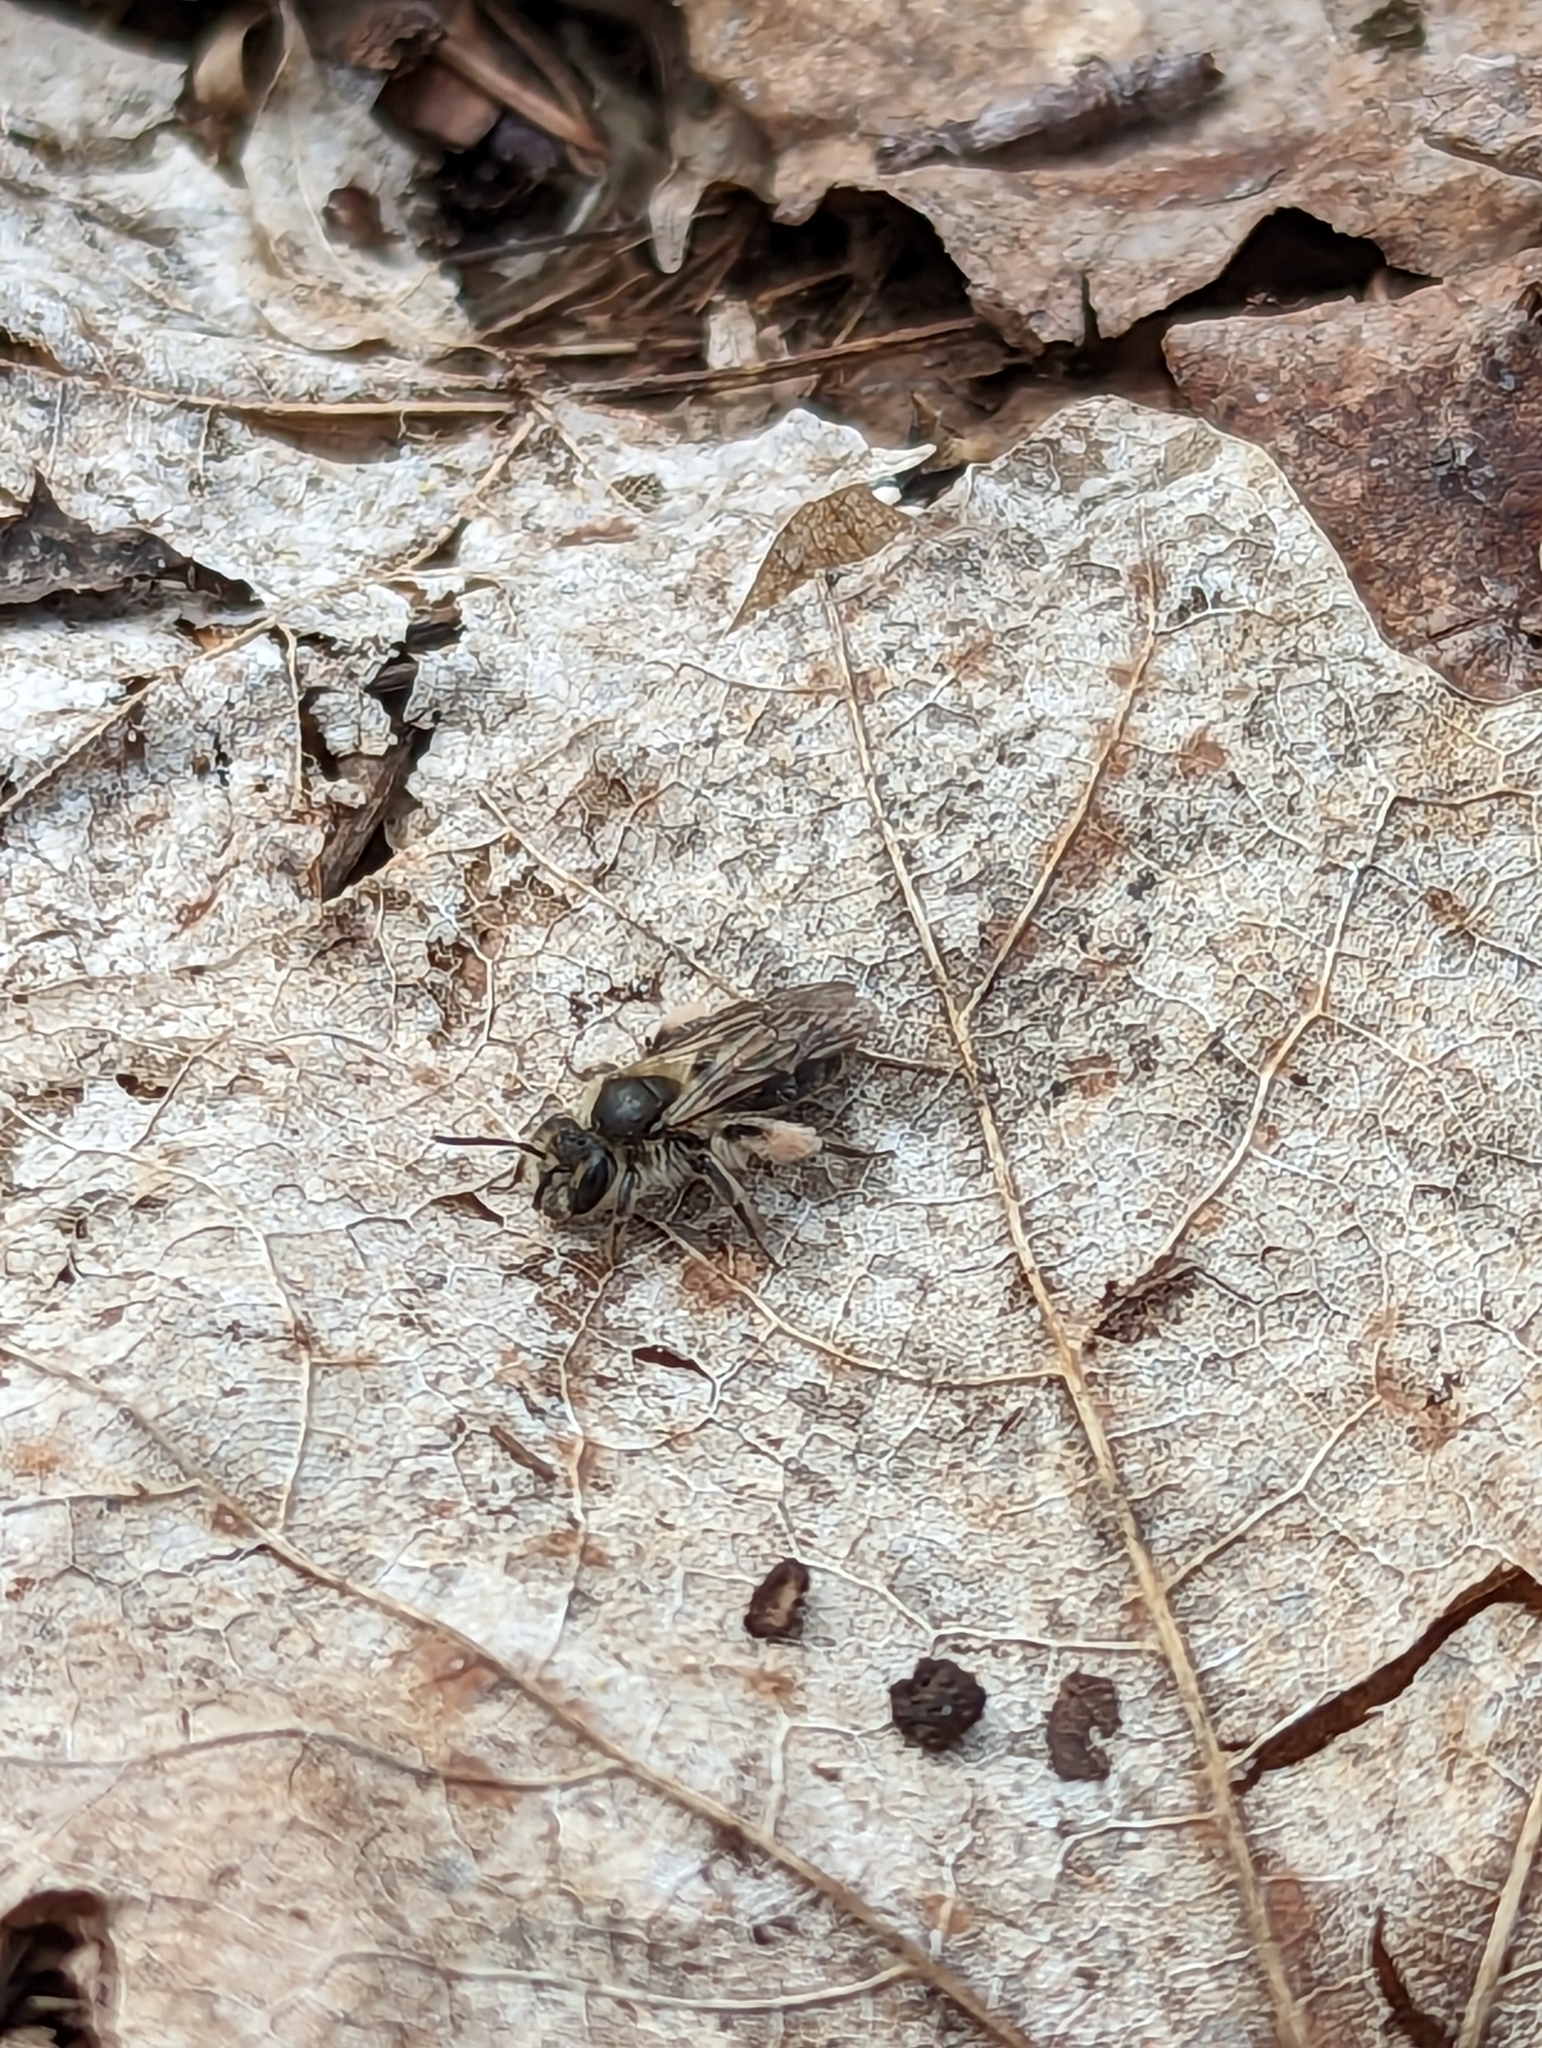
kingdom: Animalia
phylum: Arthropoda
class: Insecta
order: Hymenoptera
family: Andrenidae
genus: Andrena
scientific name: Andrena erigeniae
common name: Spring beauty miner
